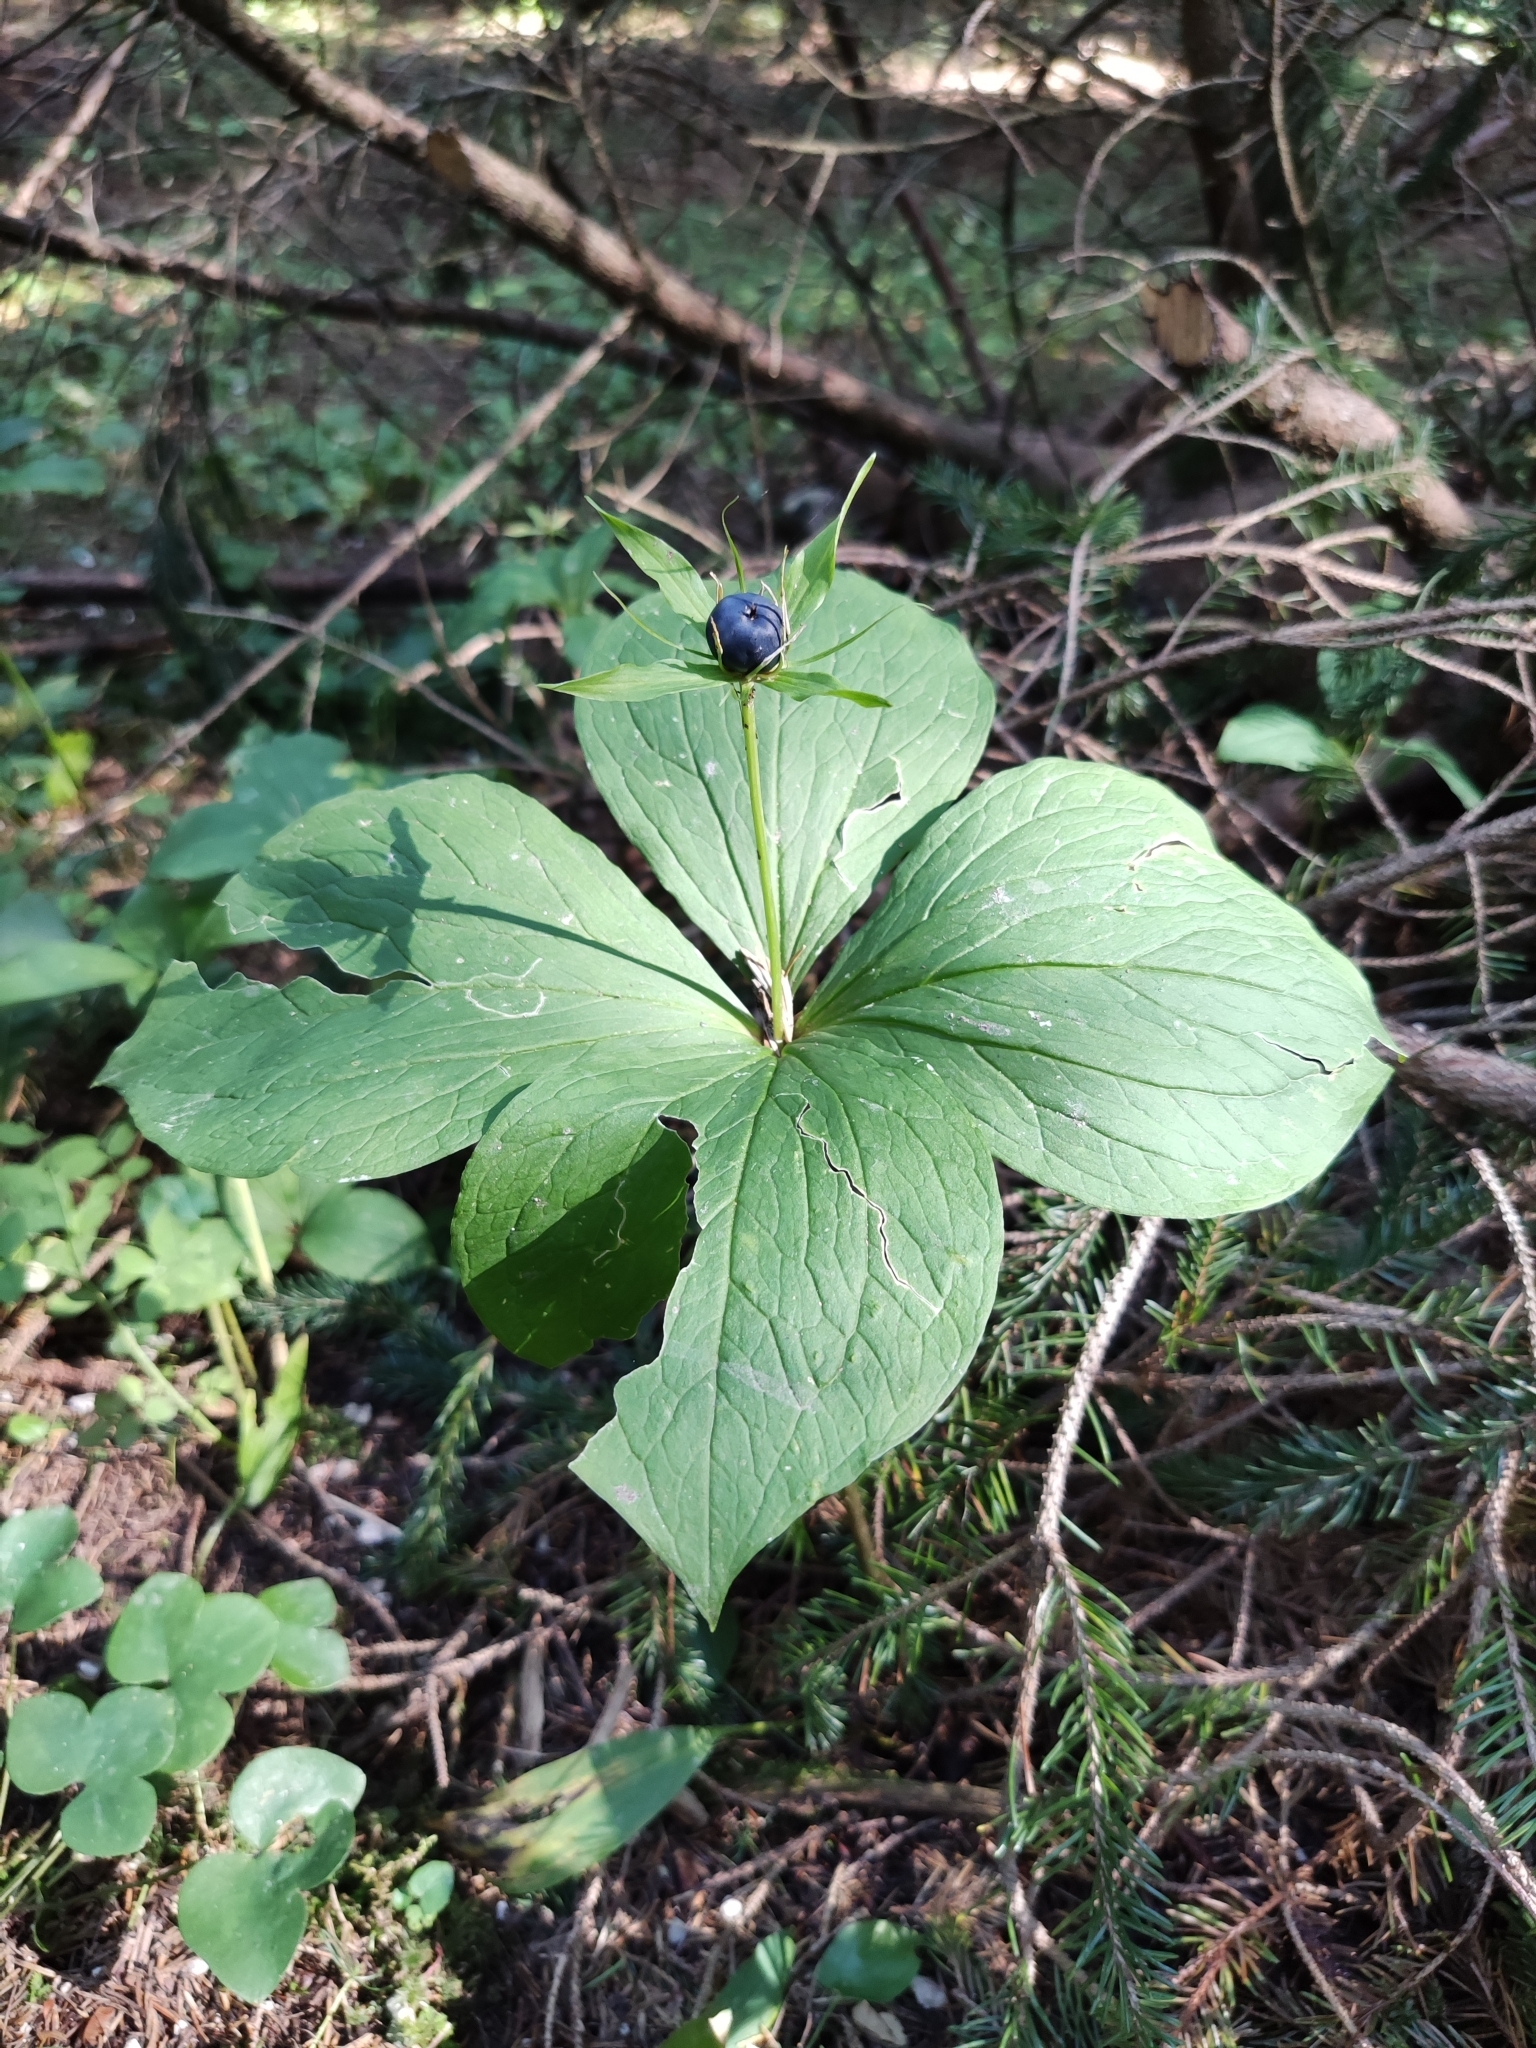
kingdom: Plantae
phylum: Tracheophyta
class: Liliopsida
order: Liliales
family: Melanthiaceae
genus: Paris
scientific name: Paris quadrifolia
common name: Herb-paris
